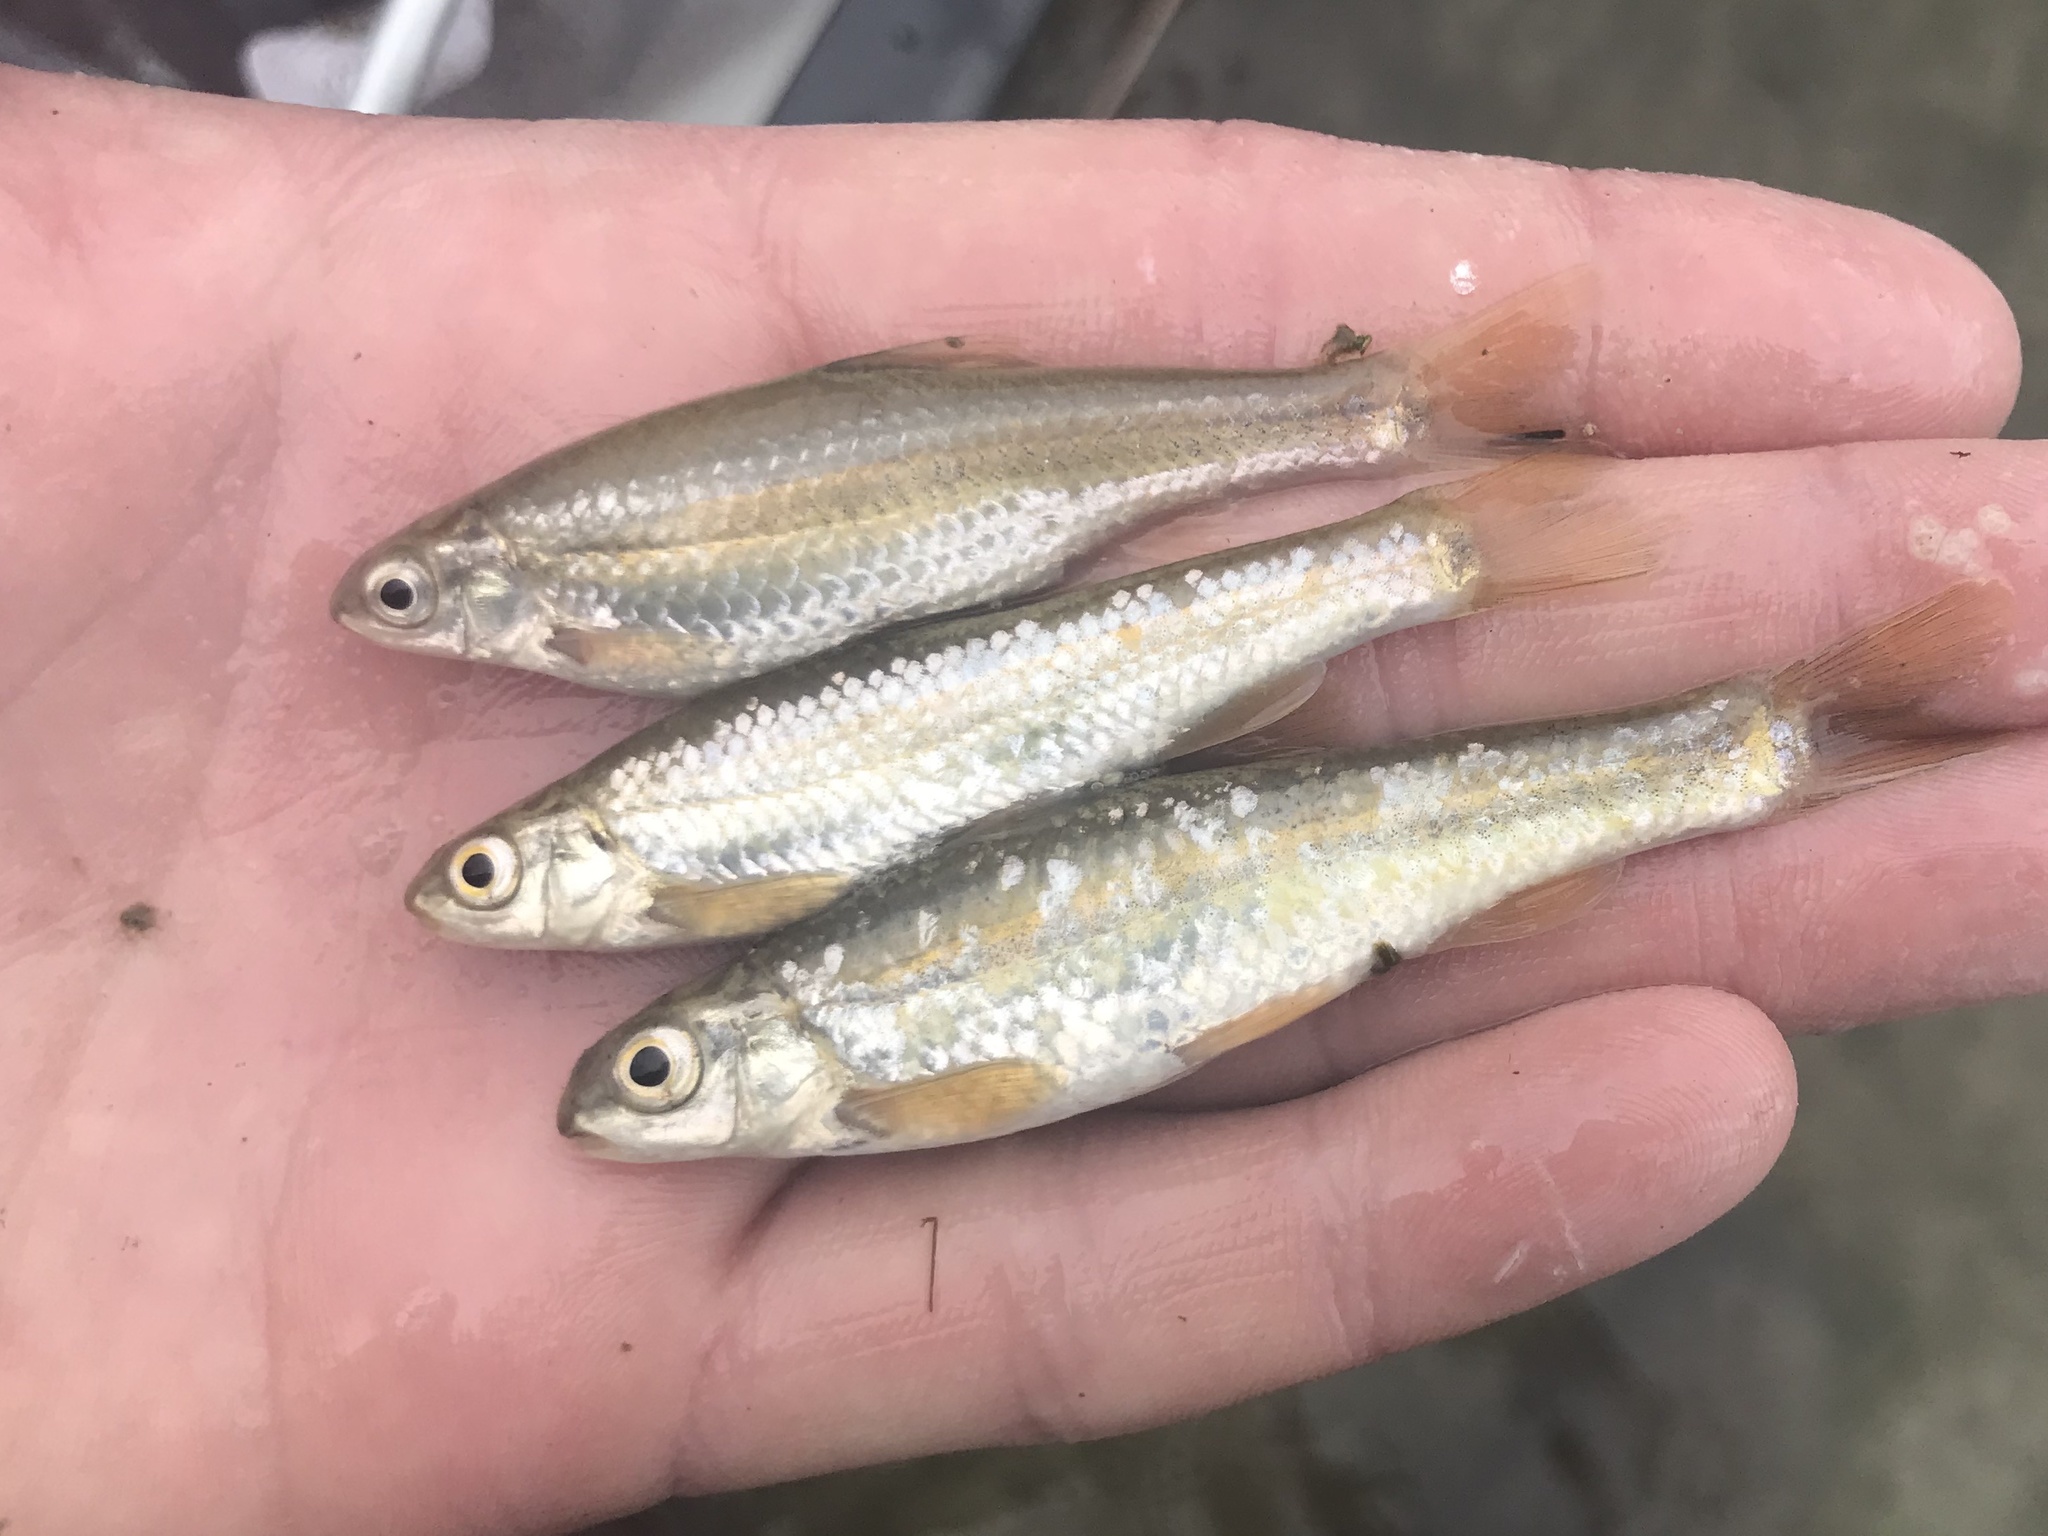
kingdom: Animalia
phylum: Chordata
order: Cypriniformes
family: Cyprinidae
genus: Dionda
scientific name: Dionda flavipinnis
